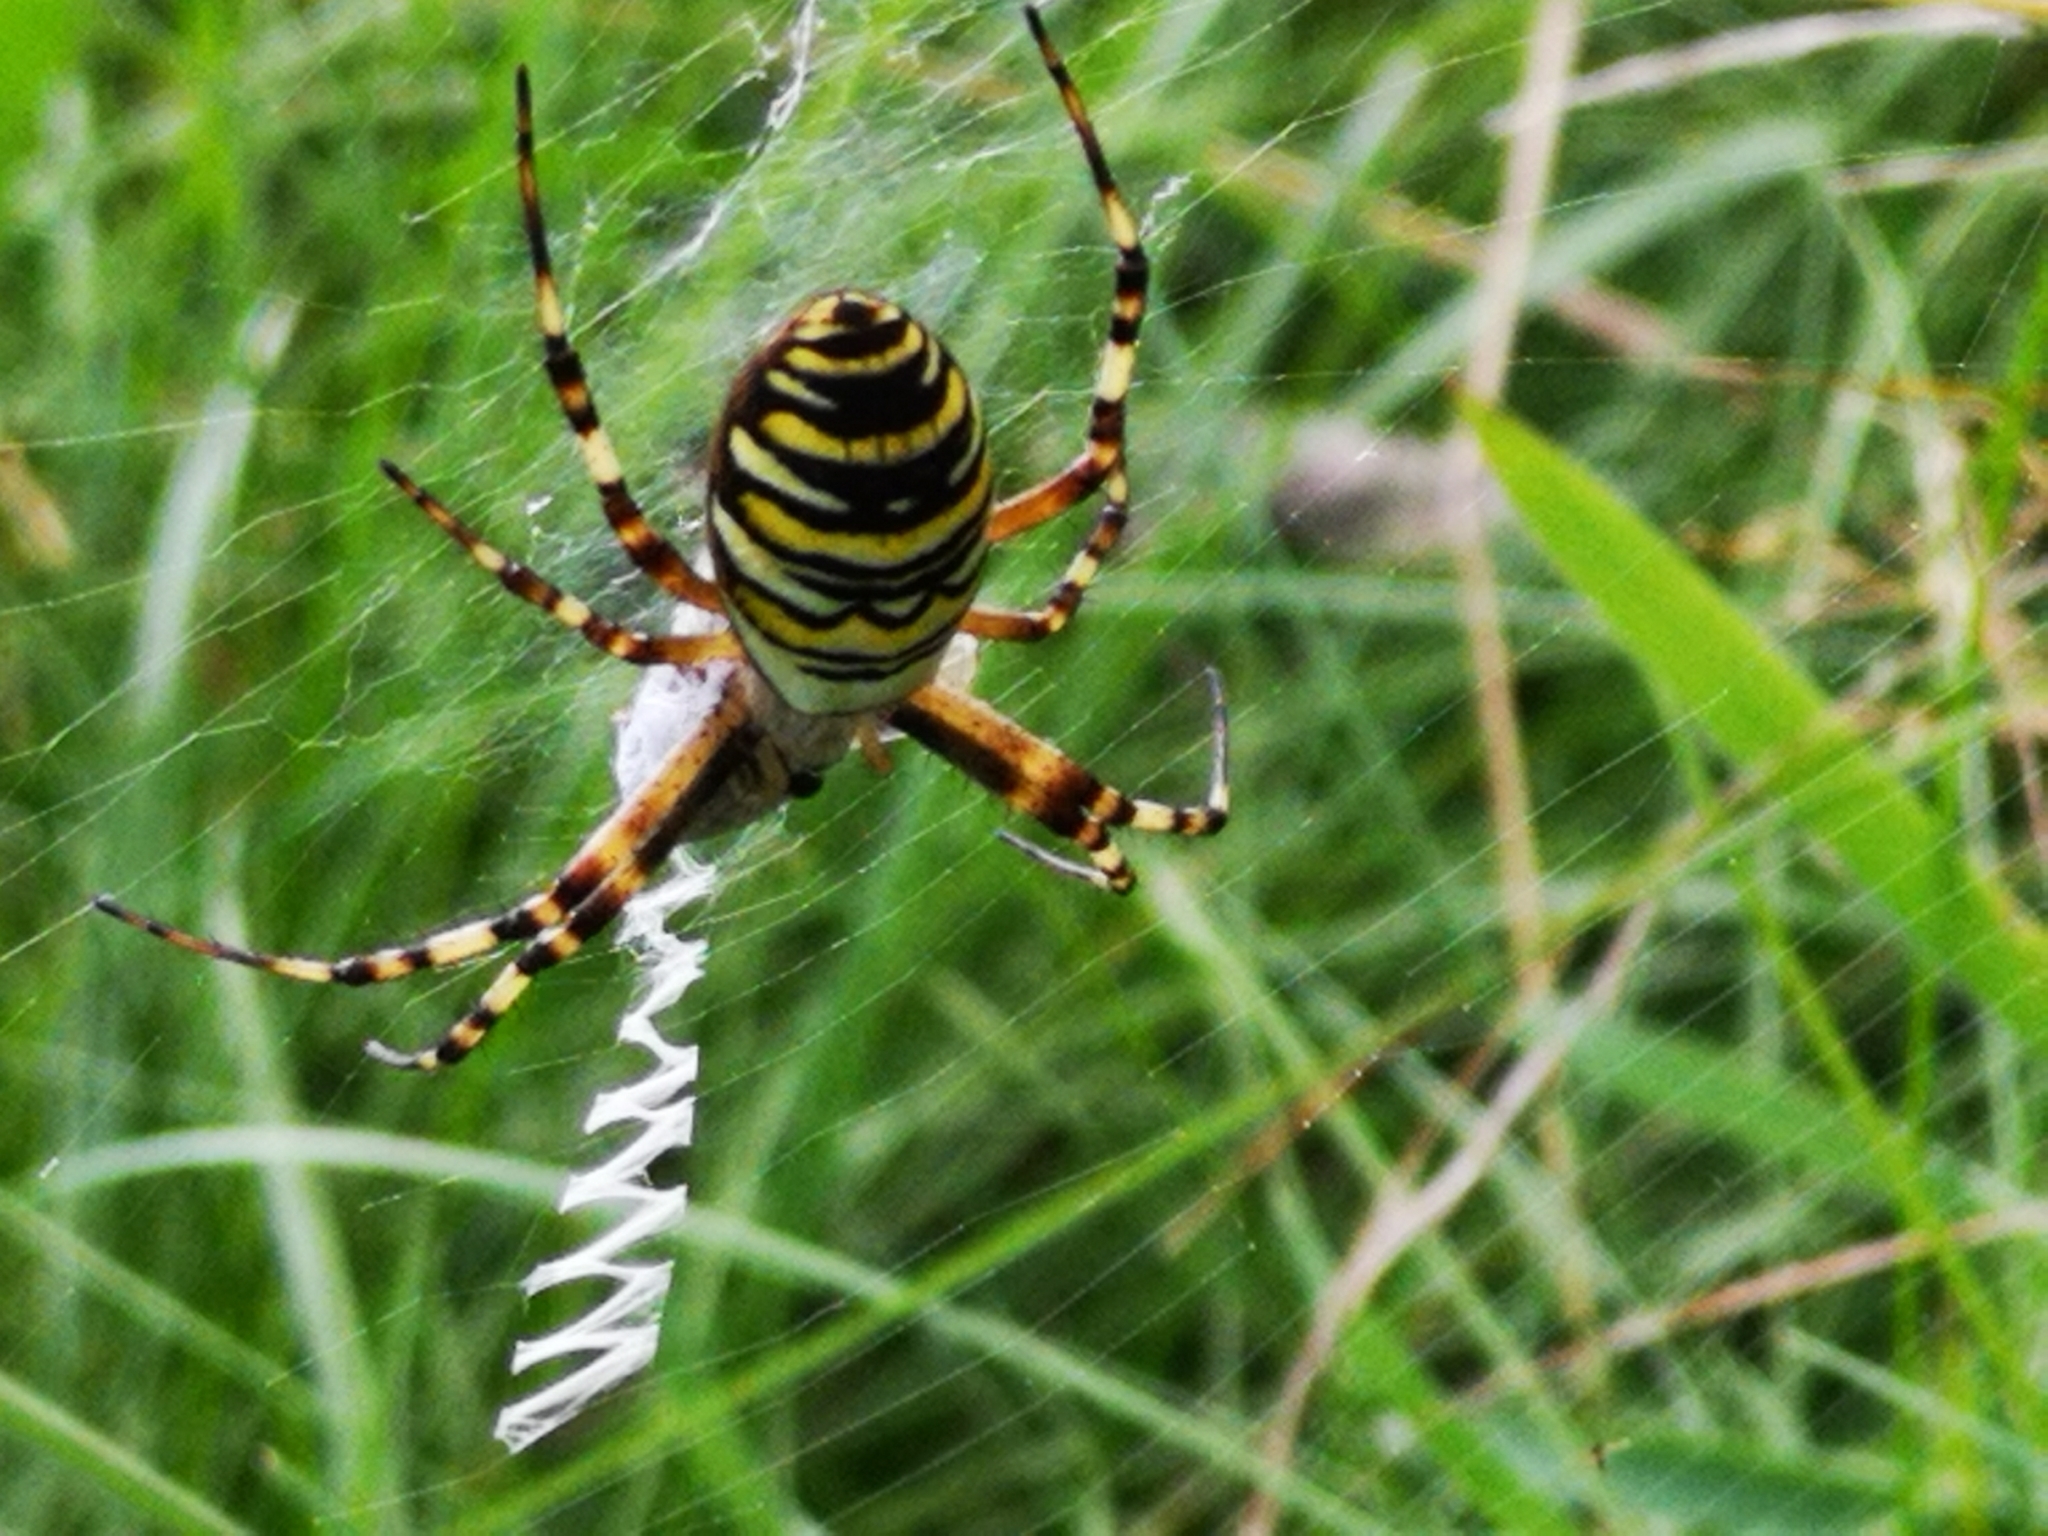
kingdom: Animalia
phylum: Arthropoda
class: Arachnida
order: Araneae
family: Araneidae
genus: Argiope
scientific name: Argiope bruennichi
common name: Wasp spider
